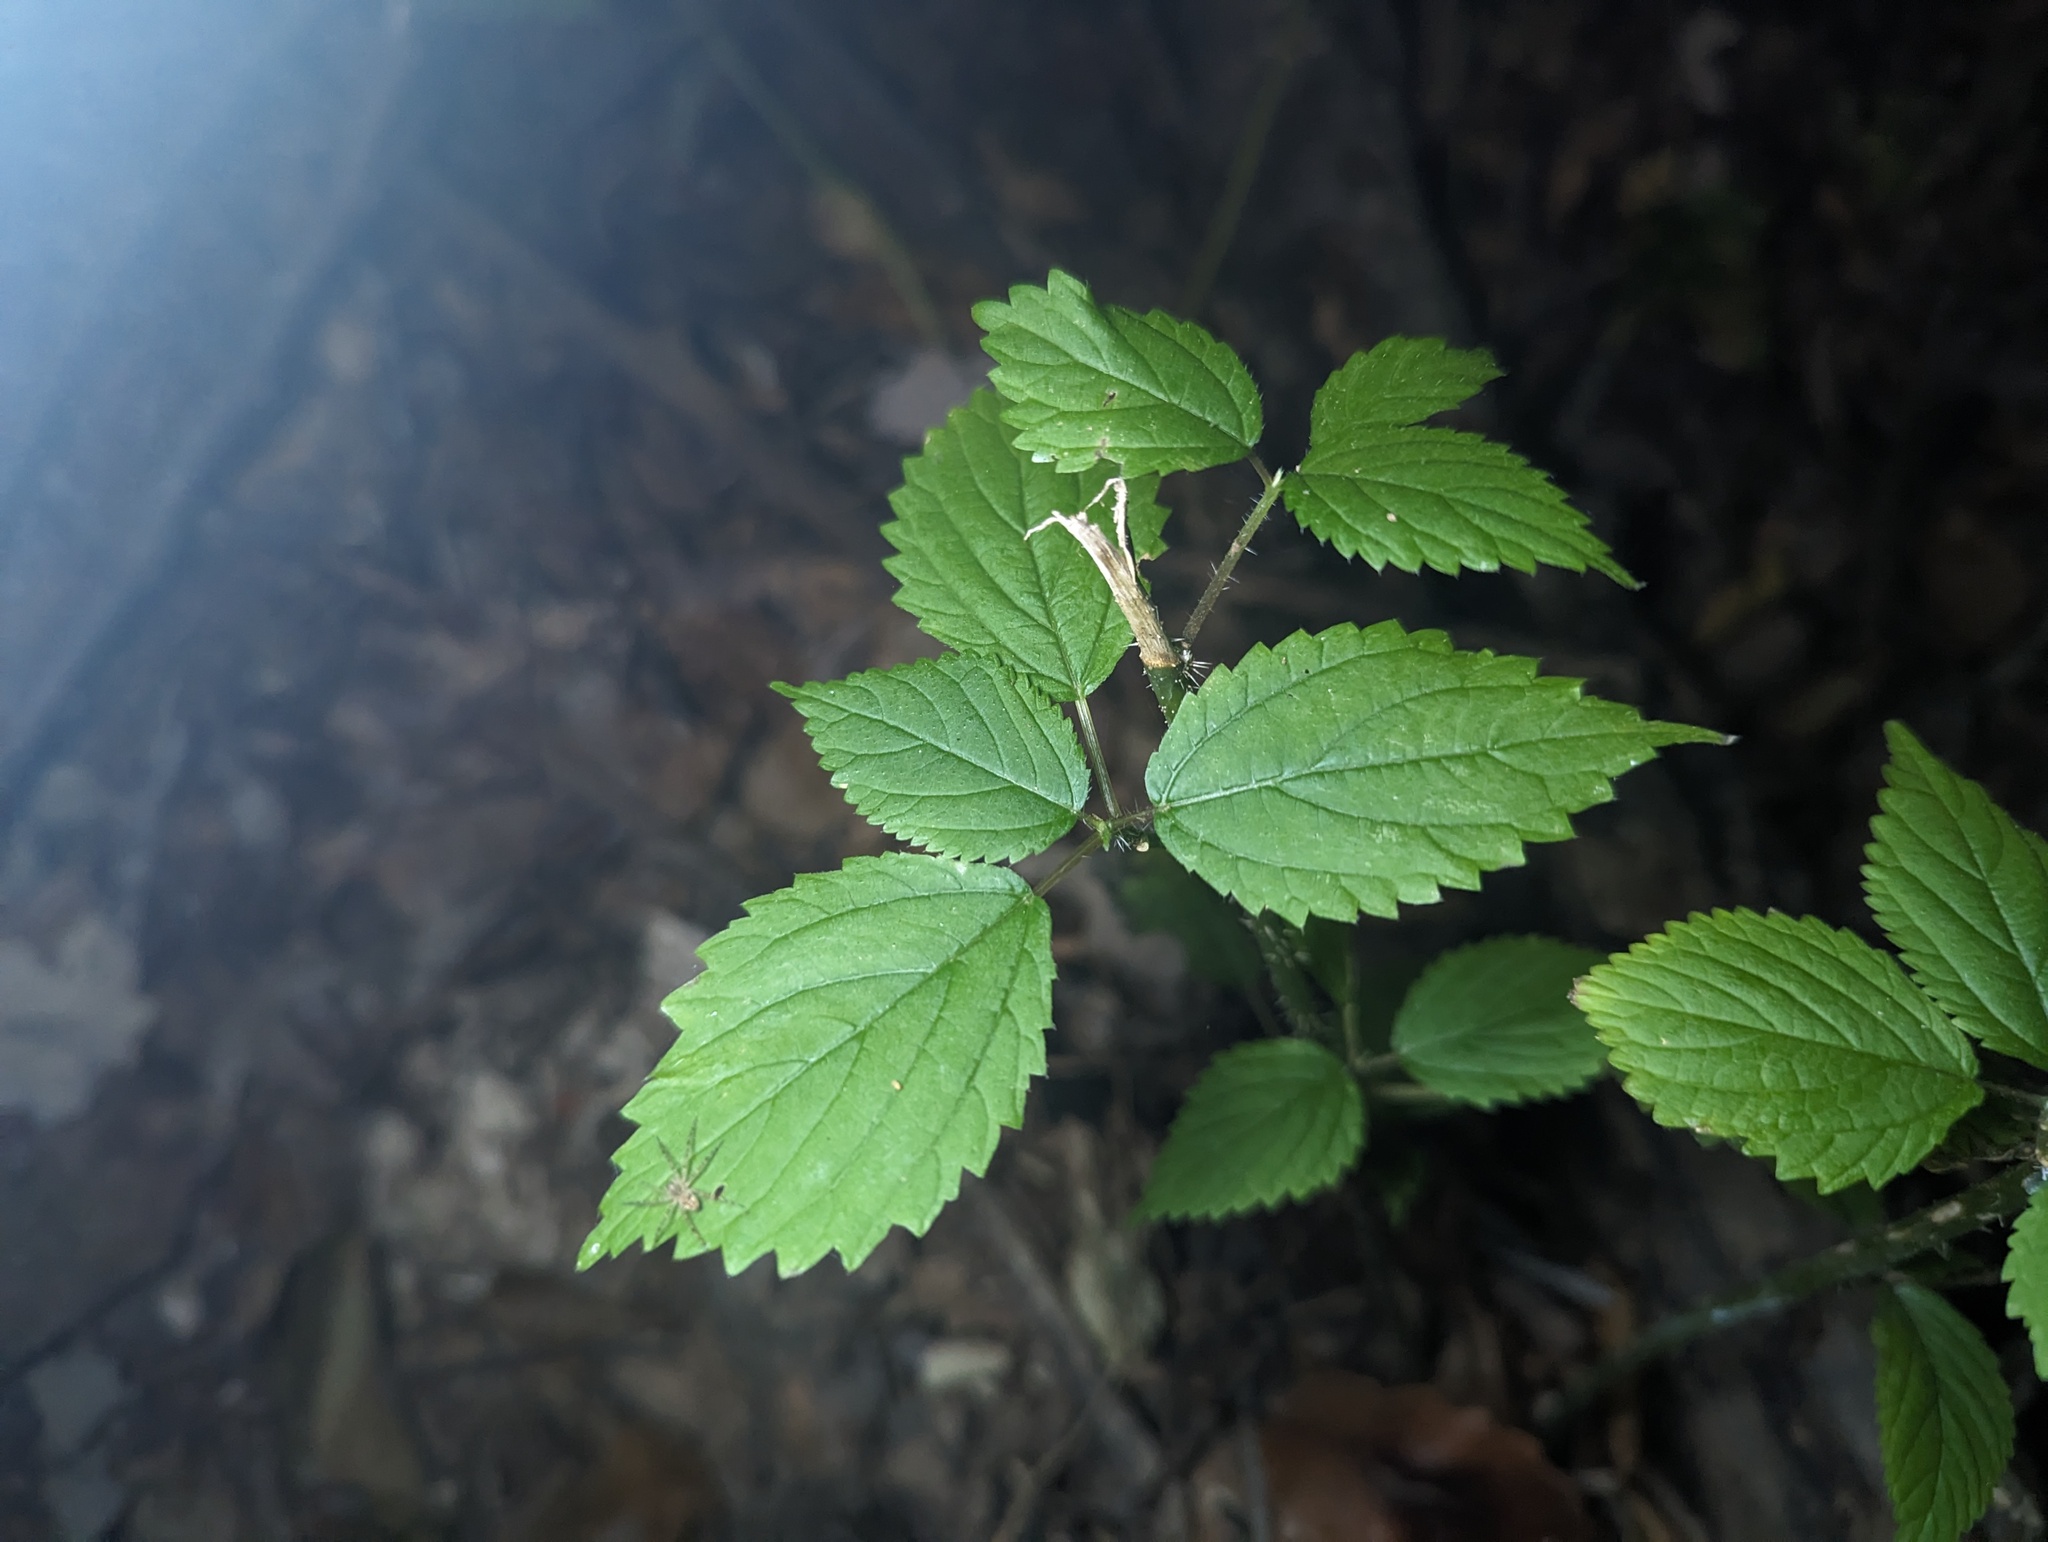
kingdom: Plantae
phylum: Tracheophyta
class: Magnoliopsida
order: Rosales
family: Urticaceae
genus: Laportea
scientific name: Laportea canadensis
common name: Canada nettle
